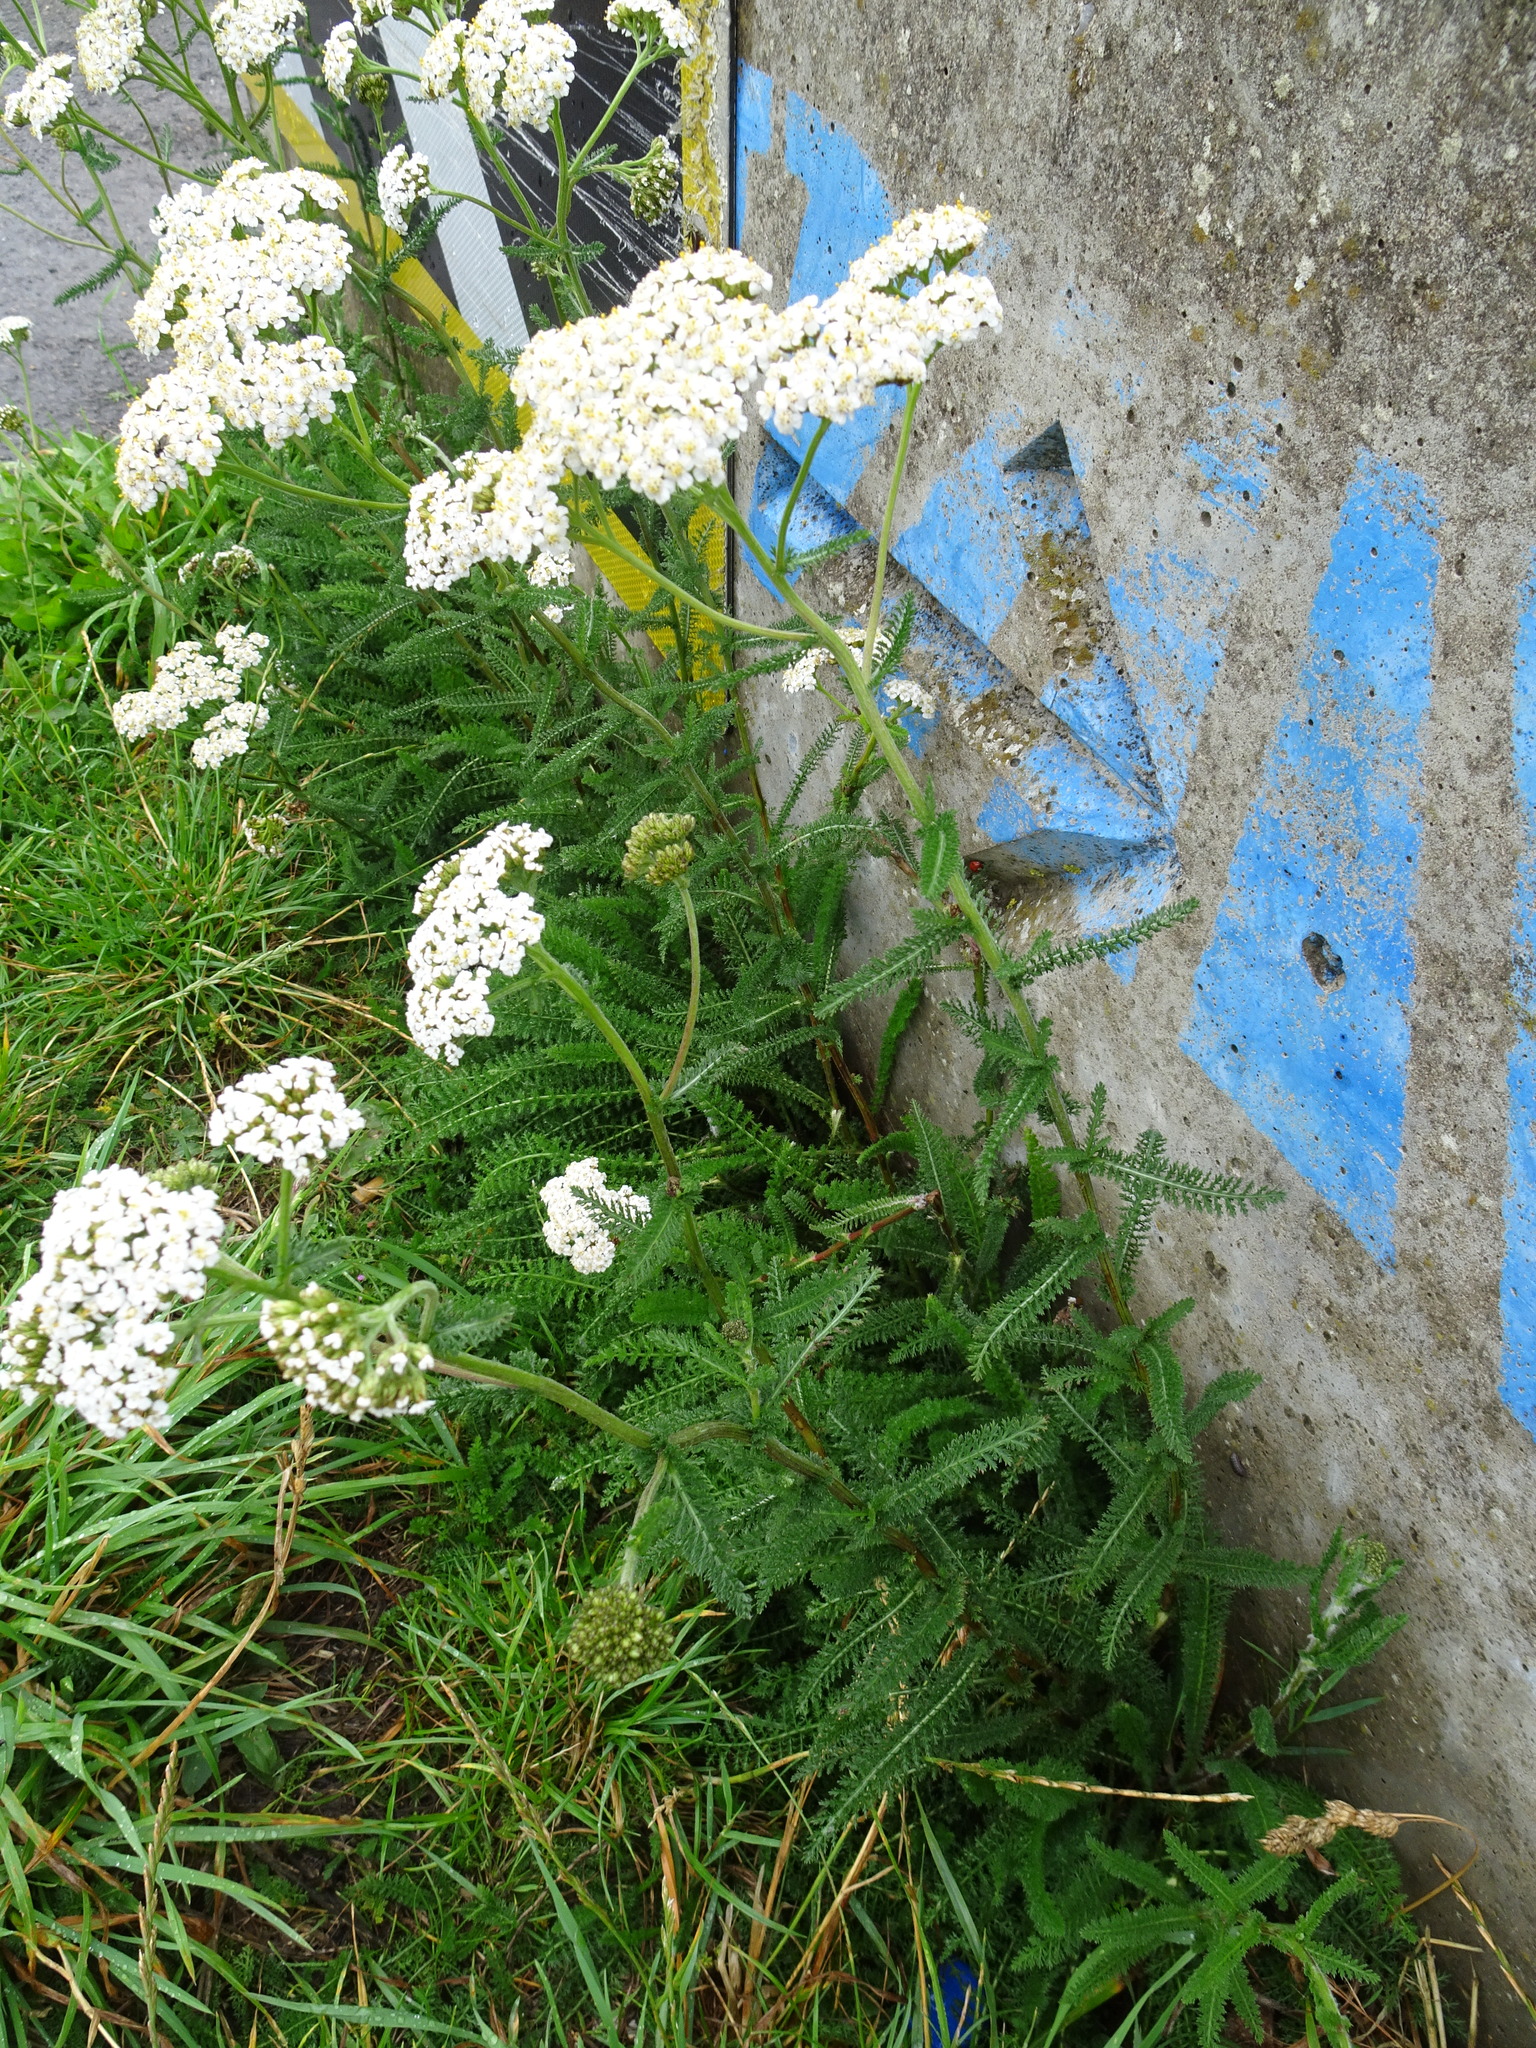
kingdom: Plantae
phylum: Tracheophyta
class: Magnoliopsida
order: Asterales
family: Asteraceae
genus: Achillea
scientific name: Achillea millefolium
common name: Yarrow
